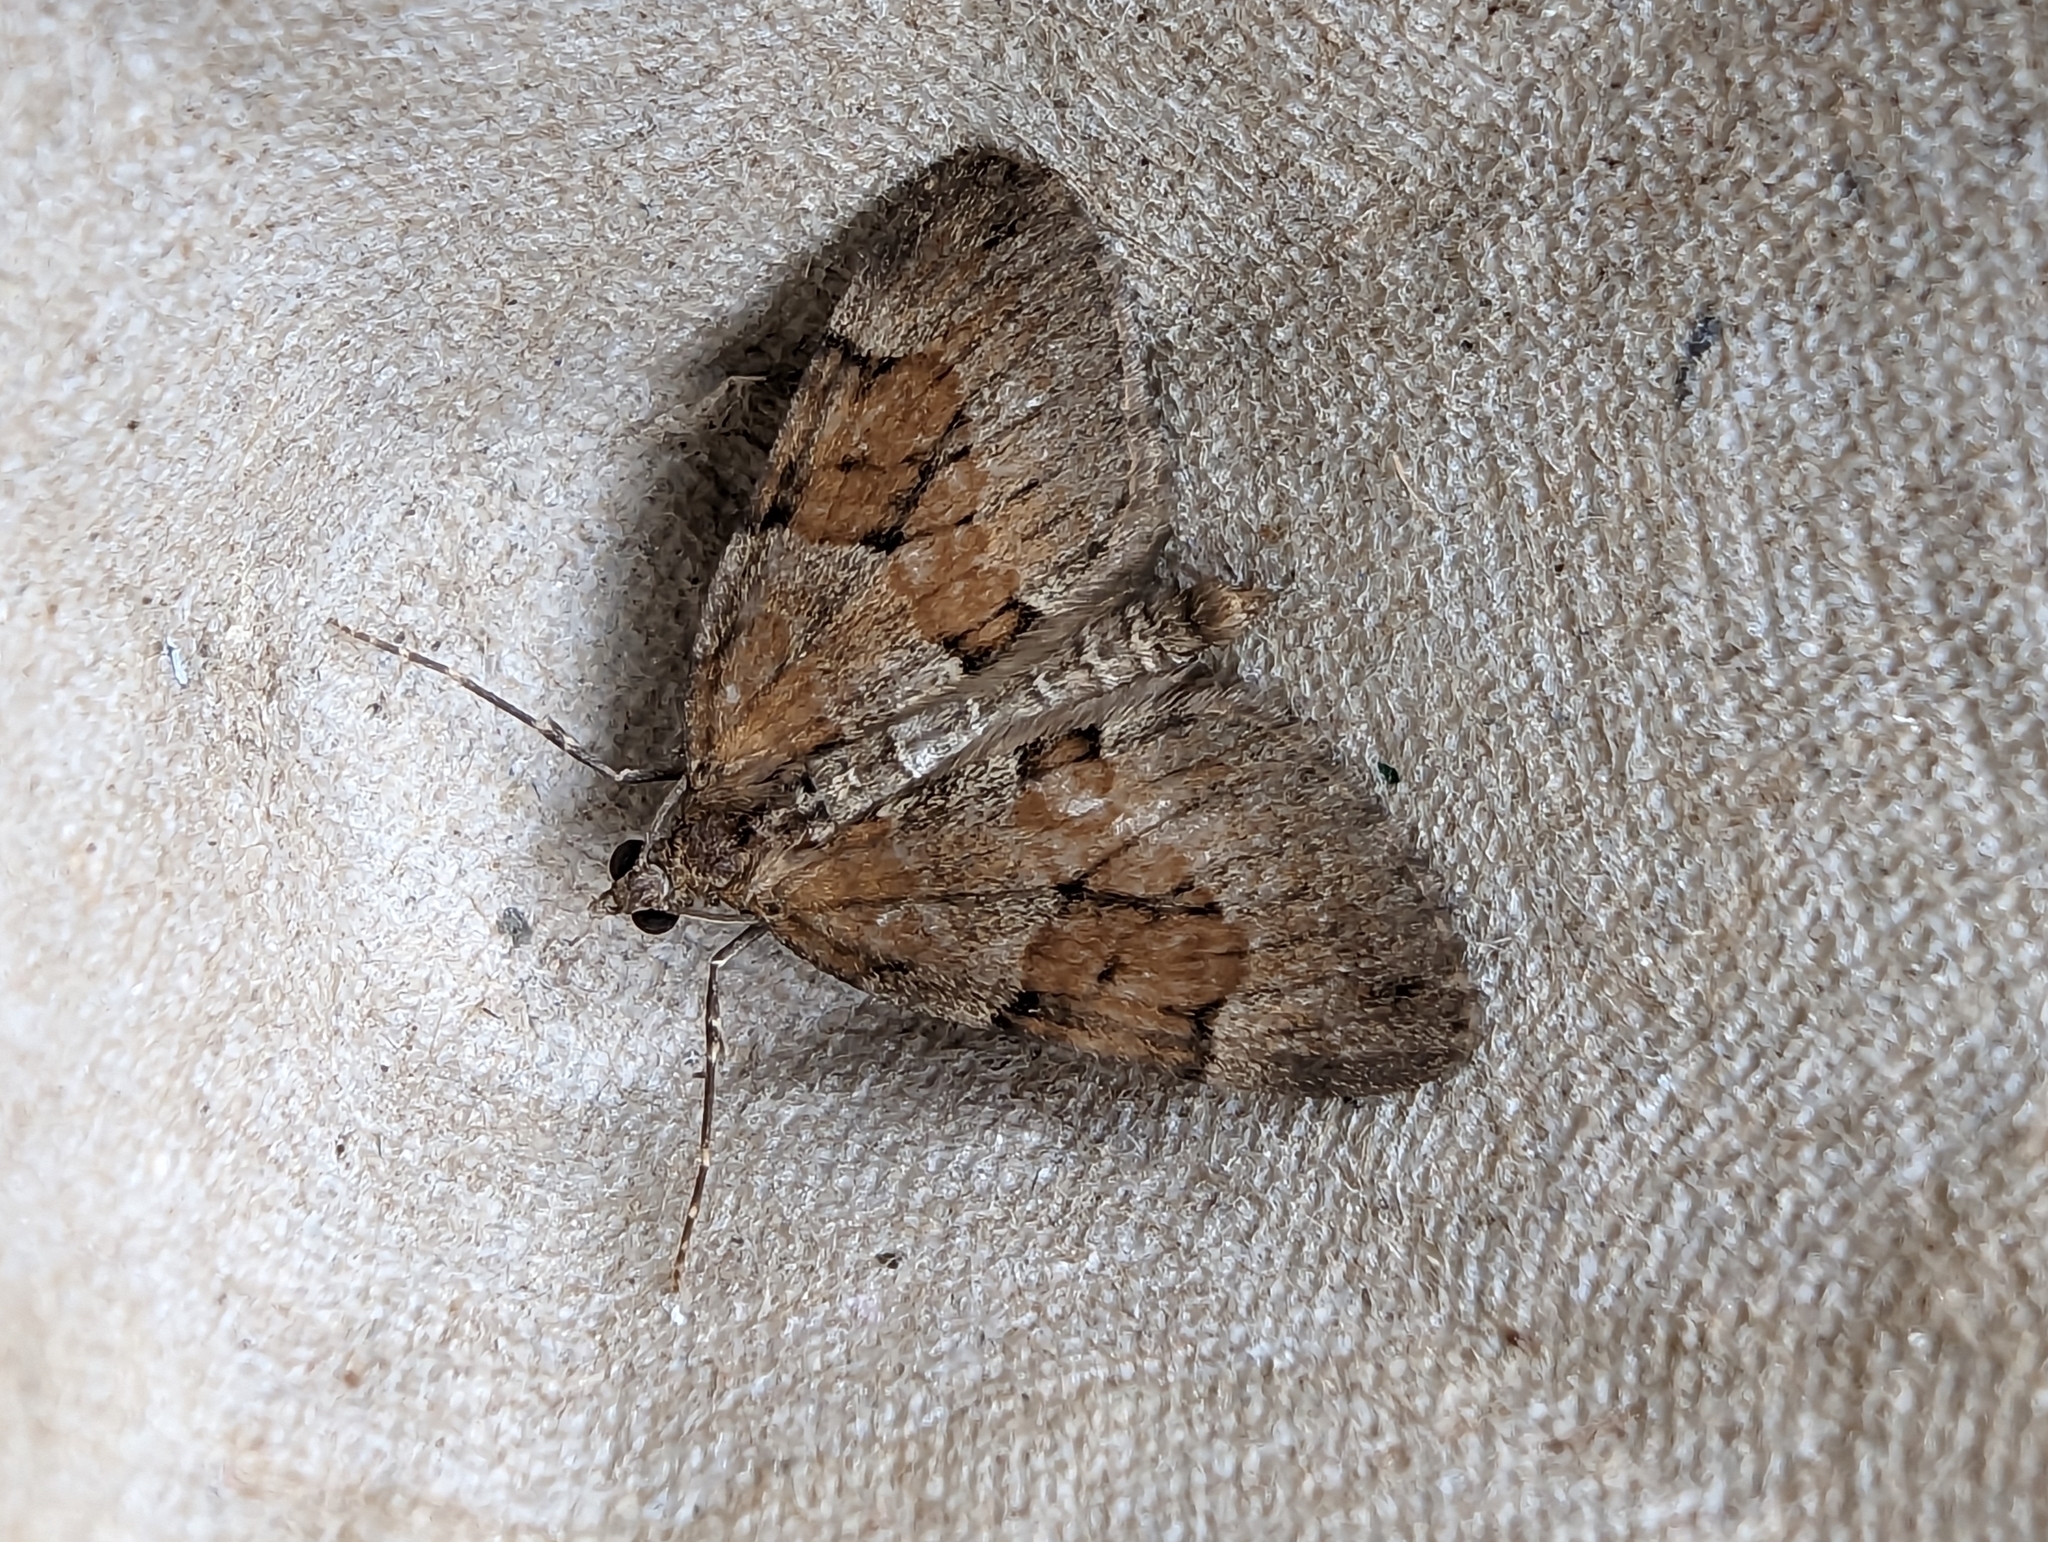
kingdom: Animalia
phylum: Arthropoda
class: Insecta
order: Lepidoptera
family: Geometridae
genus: Thera
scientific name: Thera obeliscata
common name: Grey pine carpet
